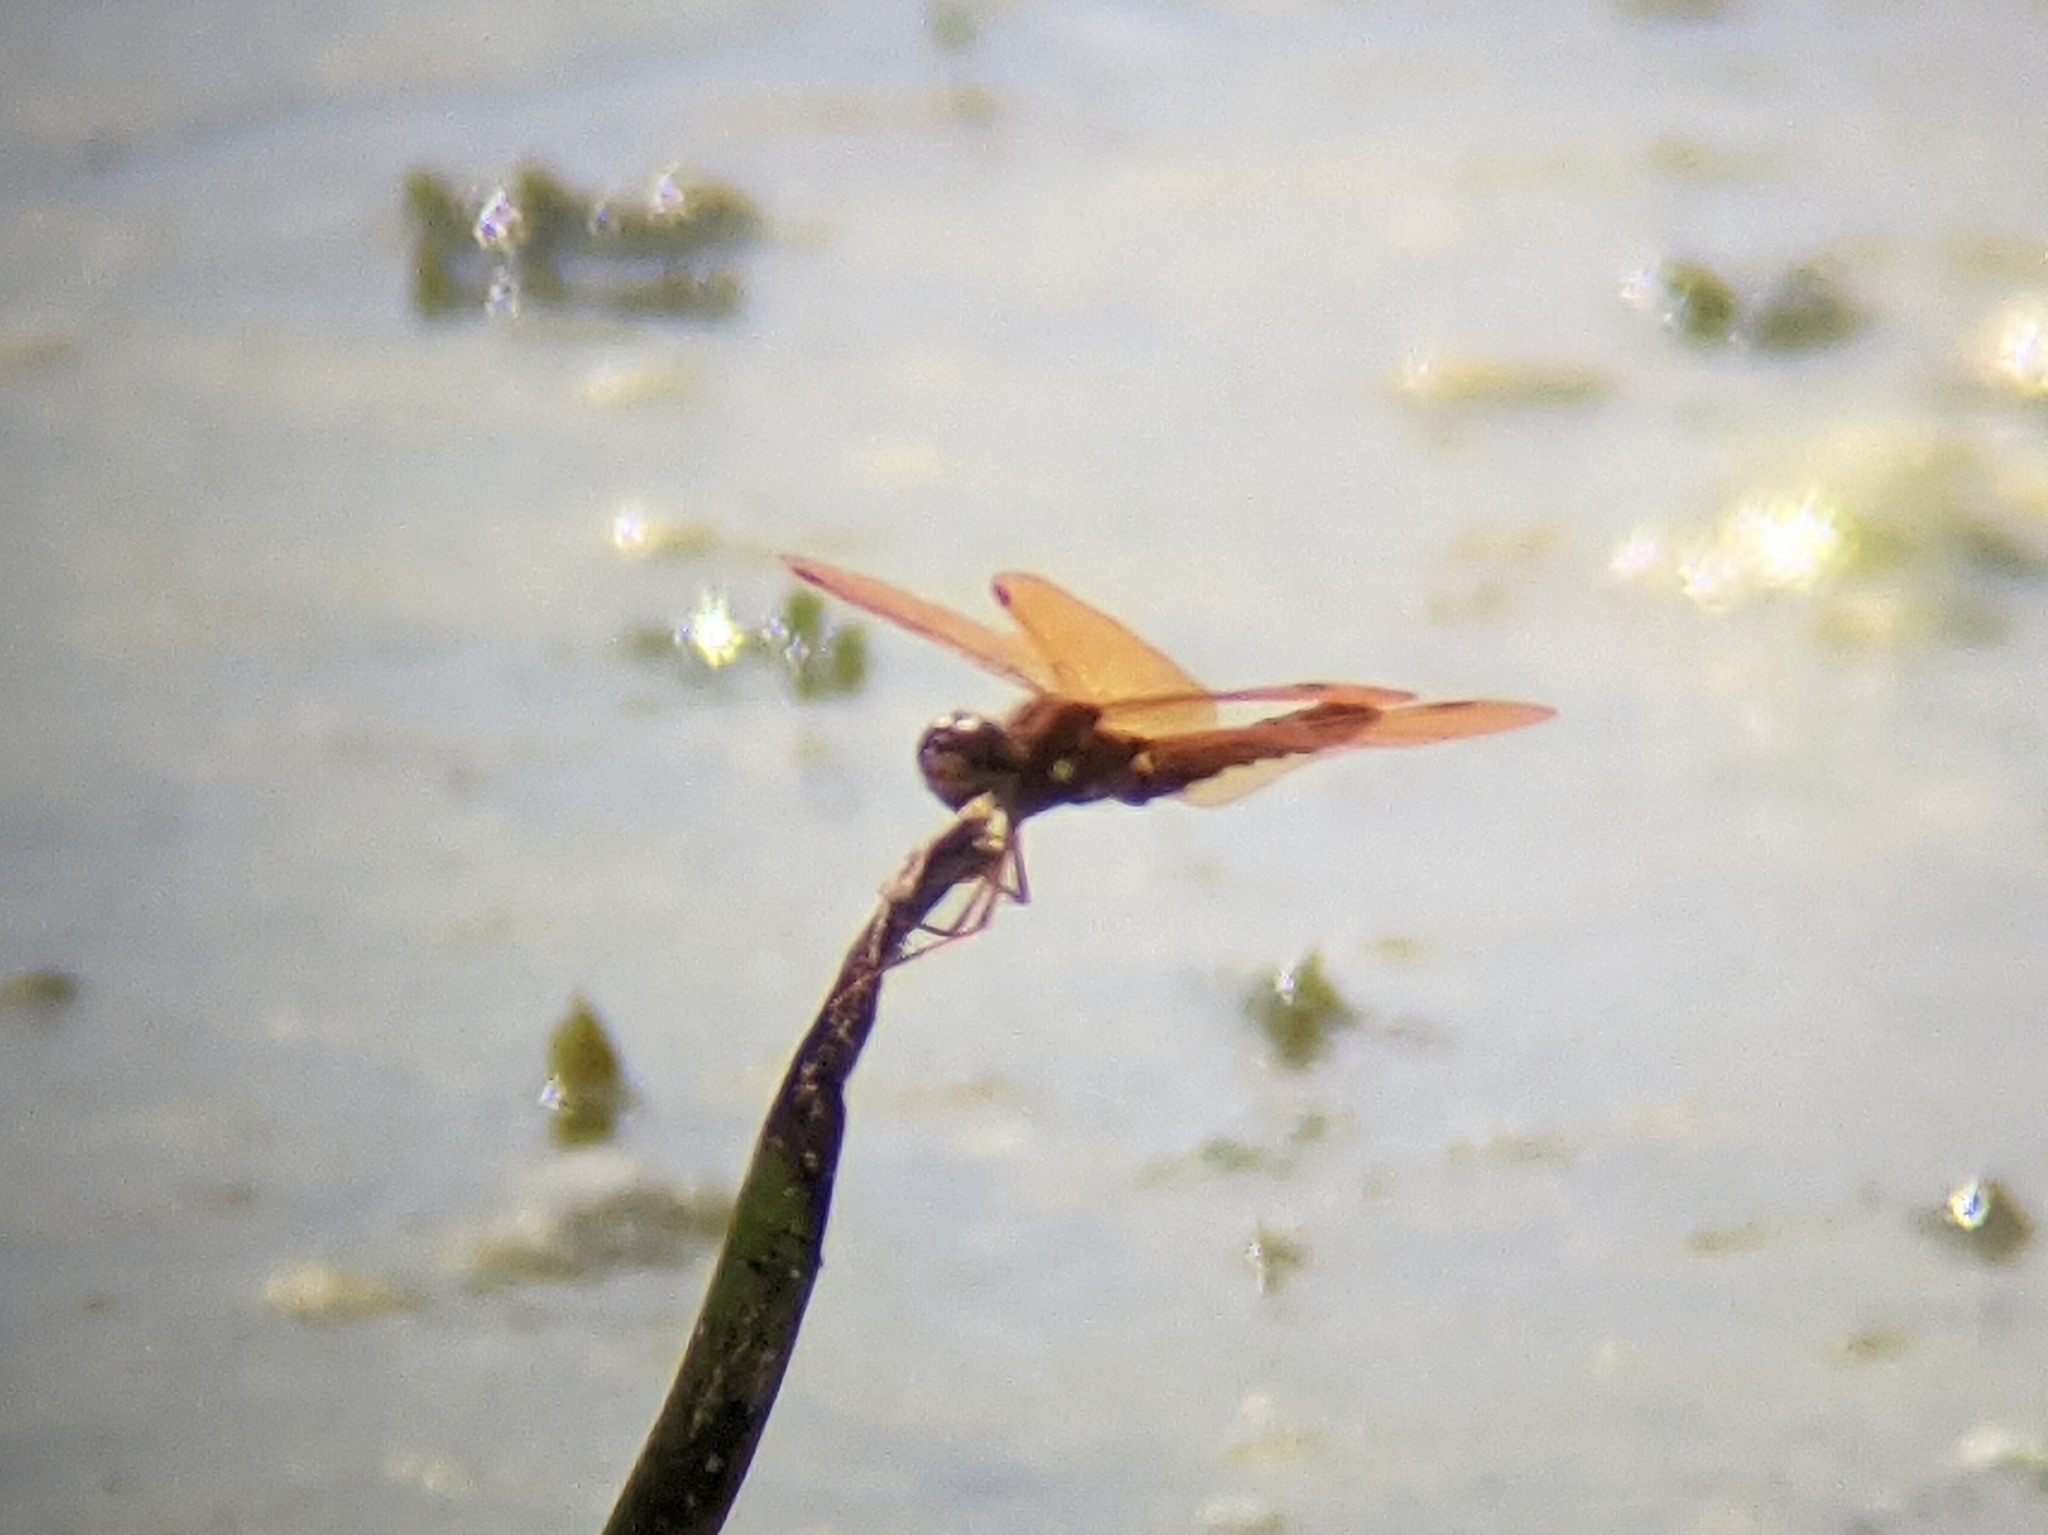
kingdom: Animalia
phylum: Arthropoda
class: Insecta
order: Odonata
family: Libellulidae
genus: Perithemis
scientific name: Perithemis tenera
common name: Eastern amberwing
